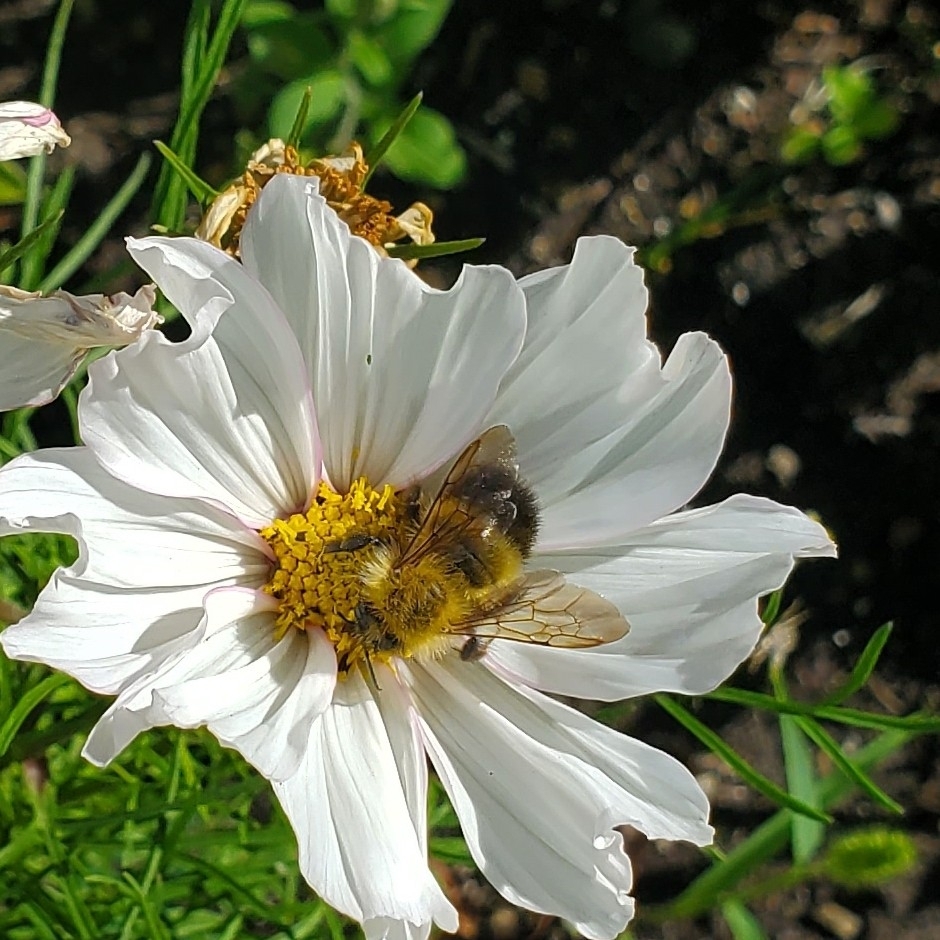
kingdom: Animalia
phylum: Arthropoda
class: Insecta
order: Hymenoptera
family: Apidae
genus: Bombus
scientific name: Bombus perplexus
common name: Confusing bumble bee
